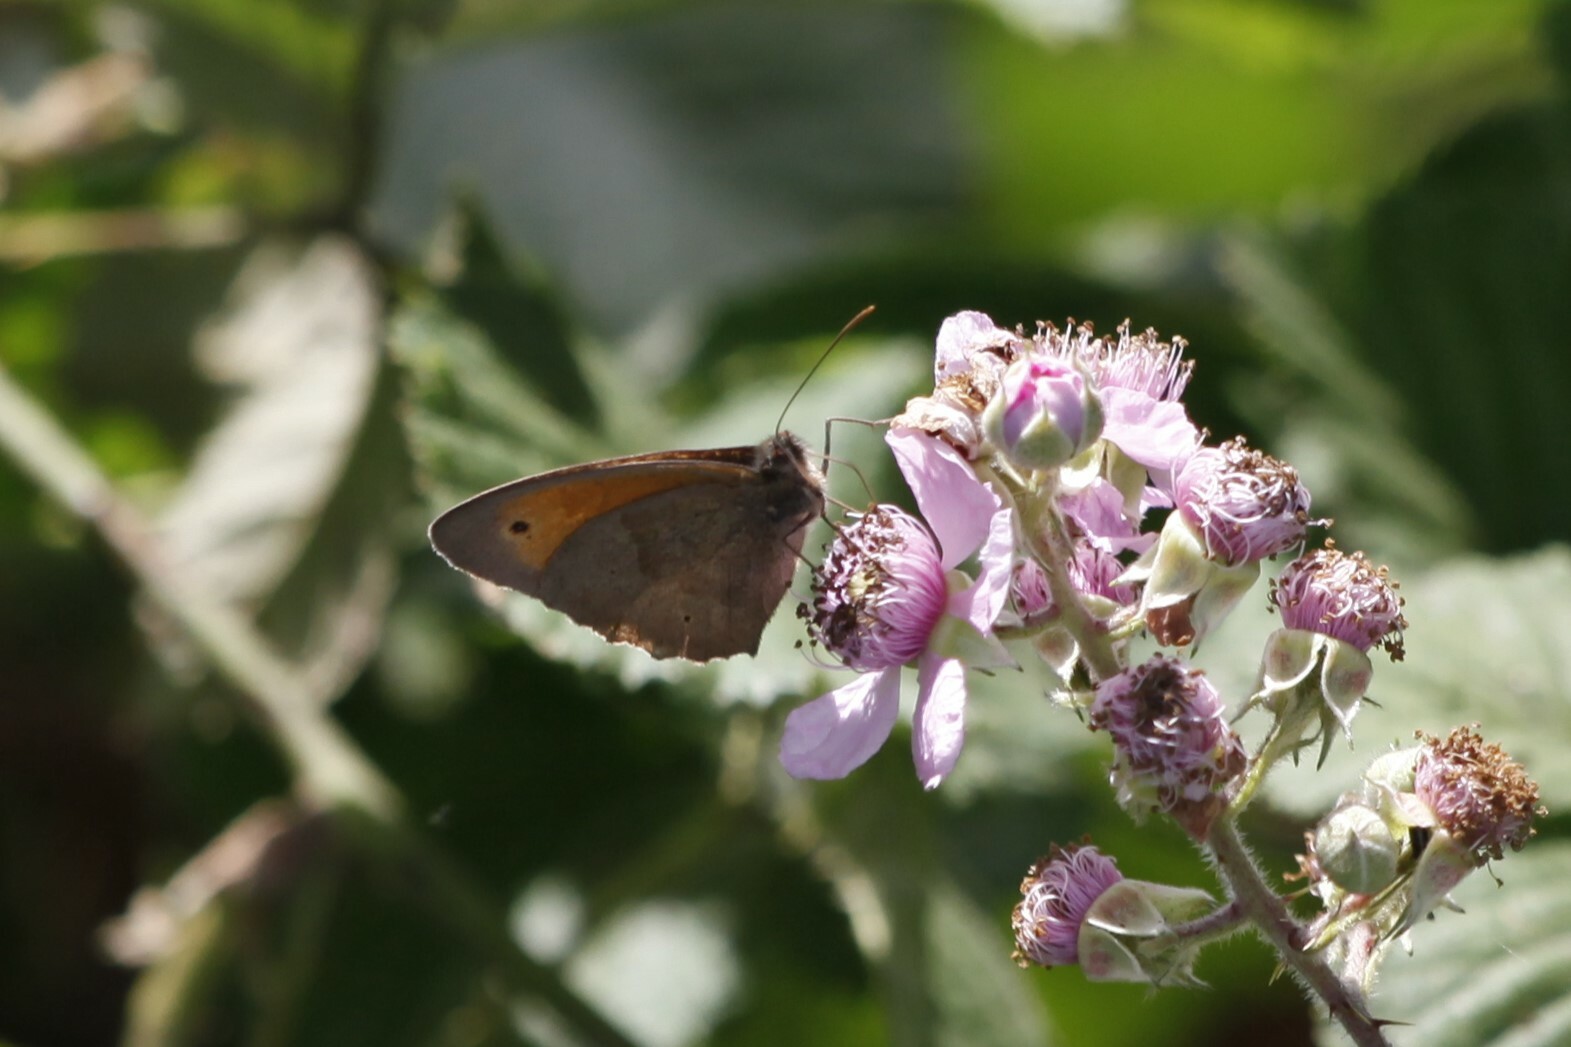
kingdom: Animalia
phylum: Arthropoda
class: Insecta
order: Lepidoptera
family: Nymphalidae
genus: Maniola
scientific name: Maniola jurtina
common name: Meadow brown
